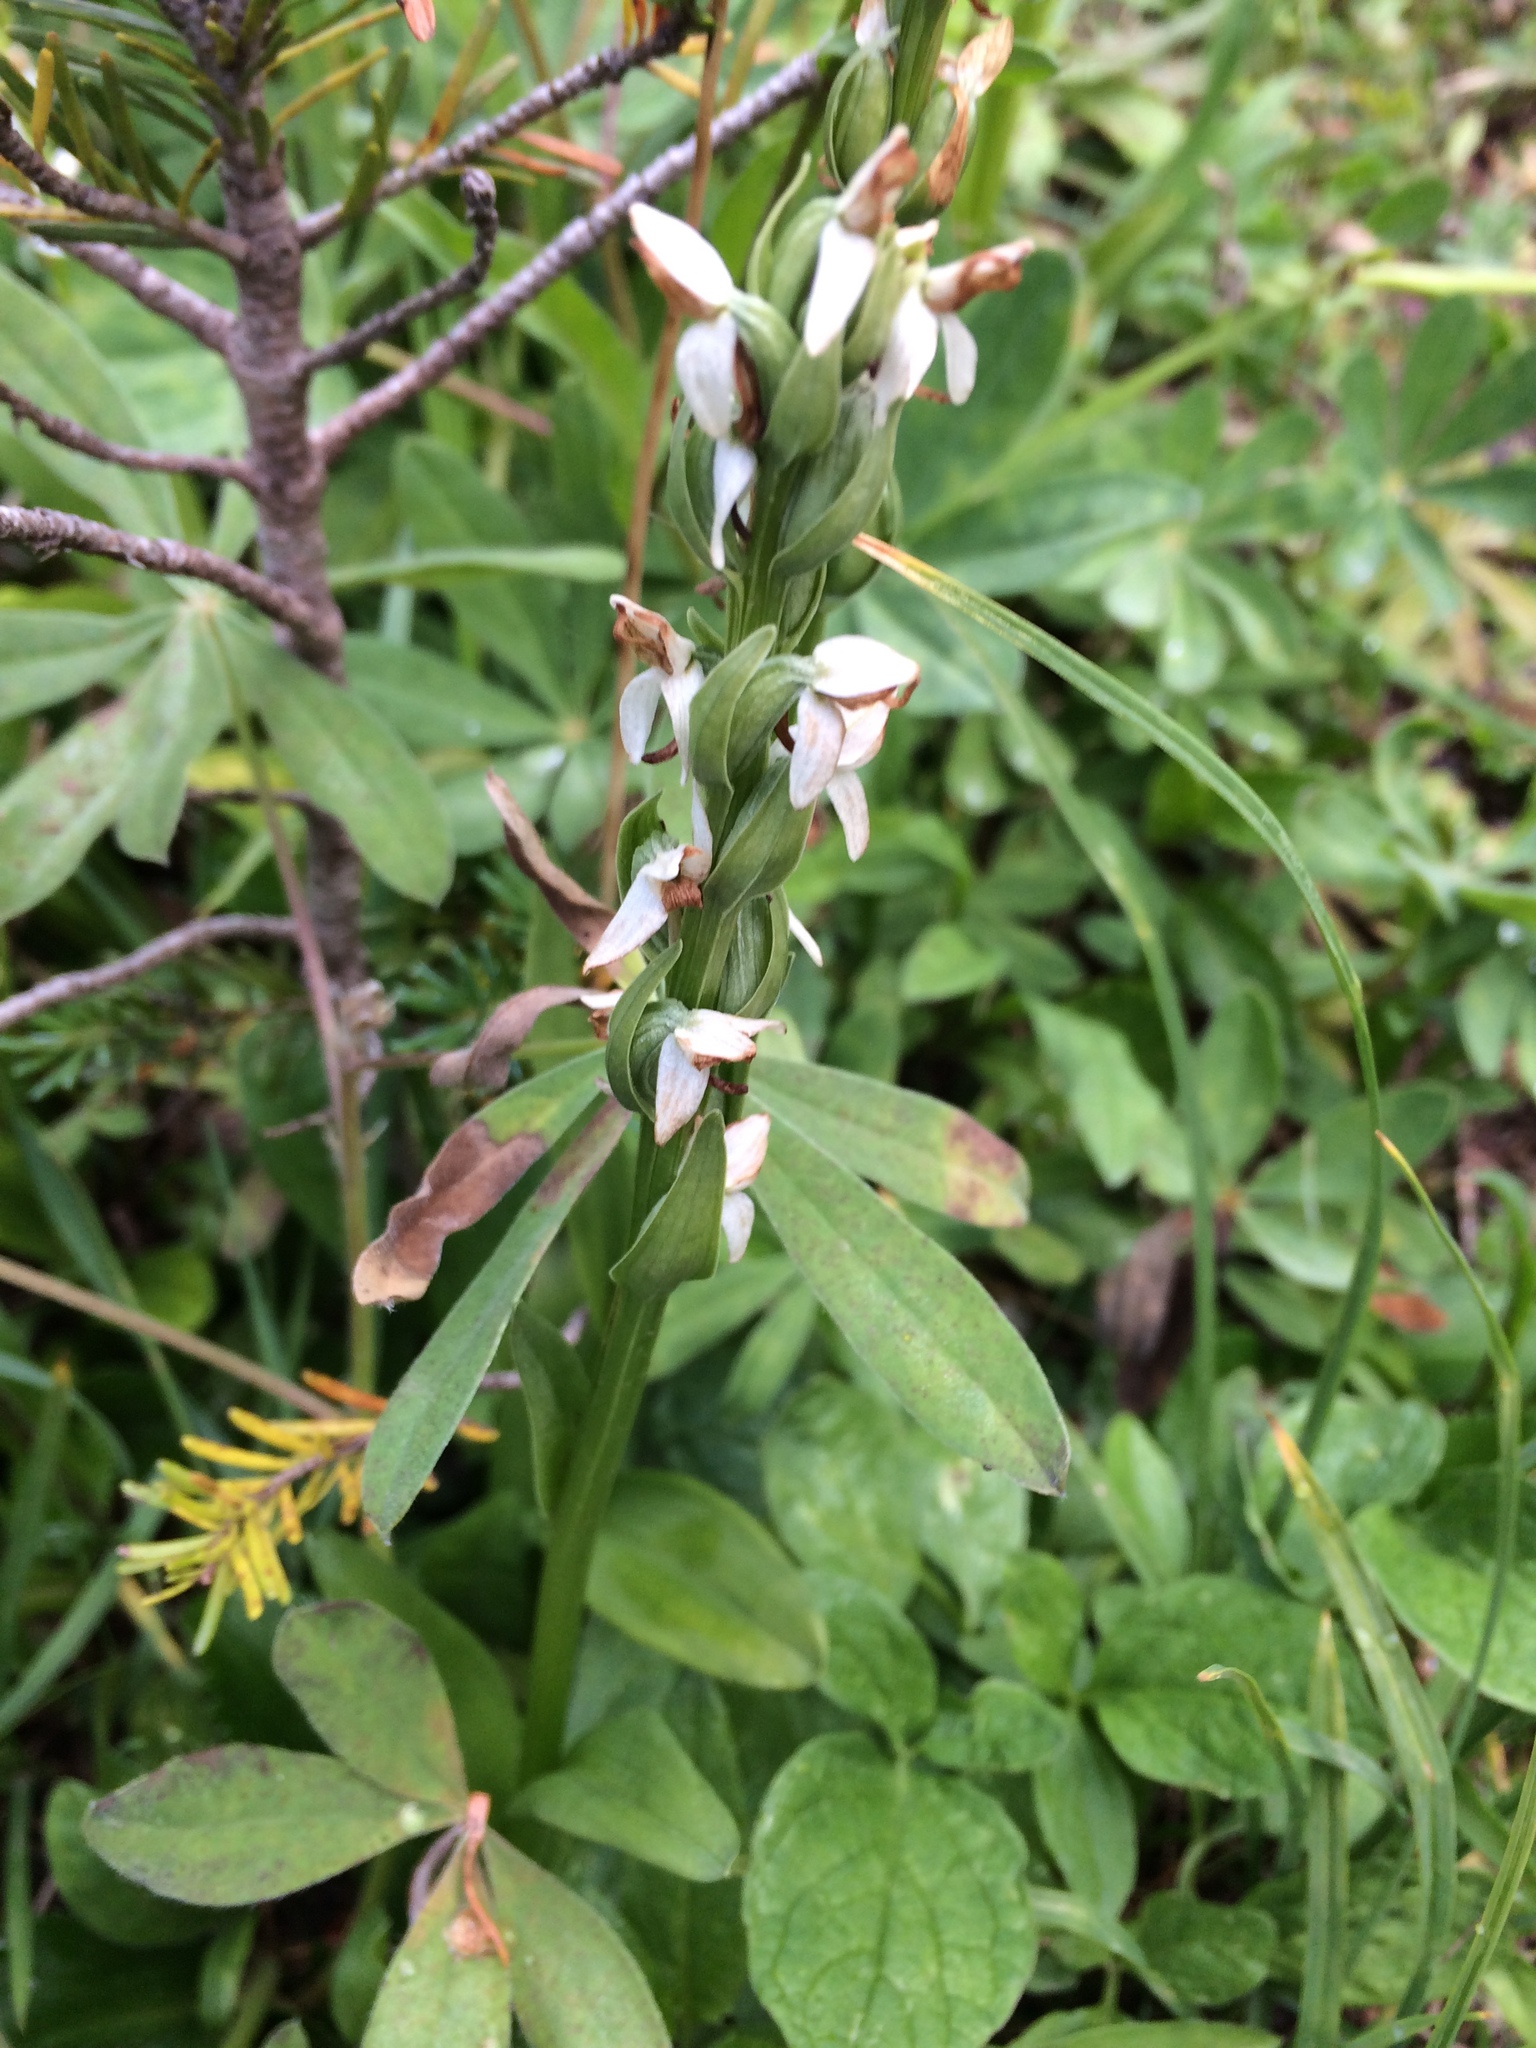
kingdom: Plantae
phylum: Tracheophyta
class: Liliopsida
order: Asparagales
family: Orchidaceae
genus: Platanthera
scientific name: Platanthera dilatata
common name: Bog candles
